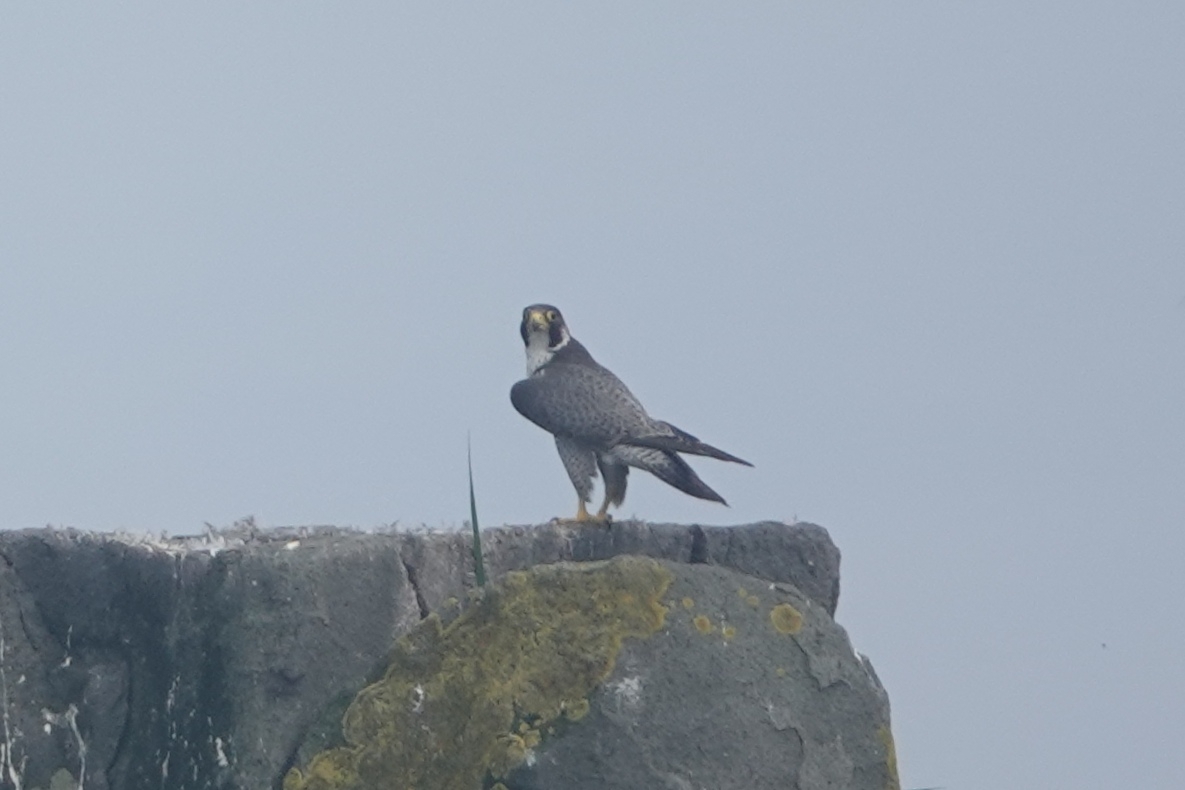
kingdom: Animalia
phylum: Chordata
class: Aves
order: Falconiformes
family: Falconidae
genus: Falco
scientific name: Falco peregrinus
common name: Peregrine falcon
